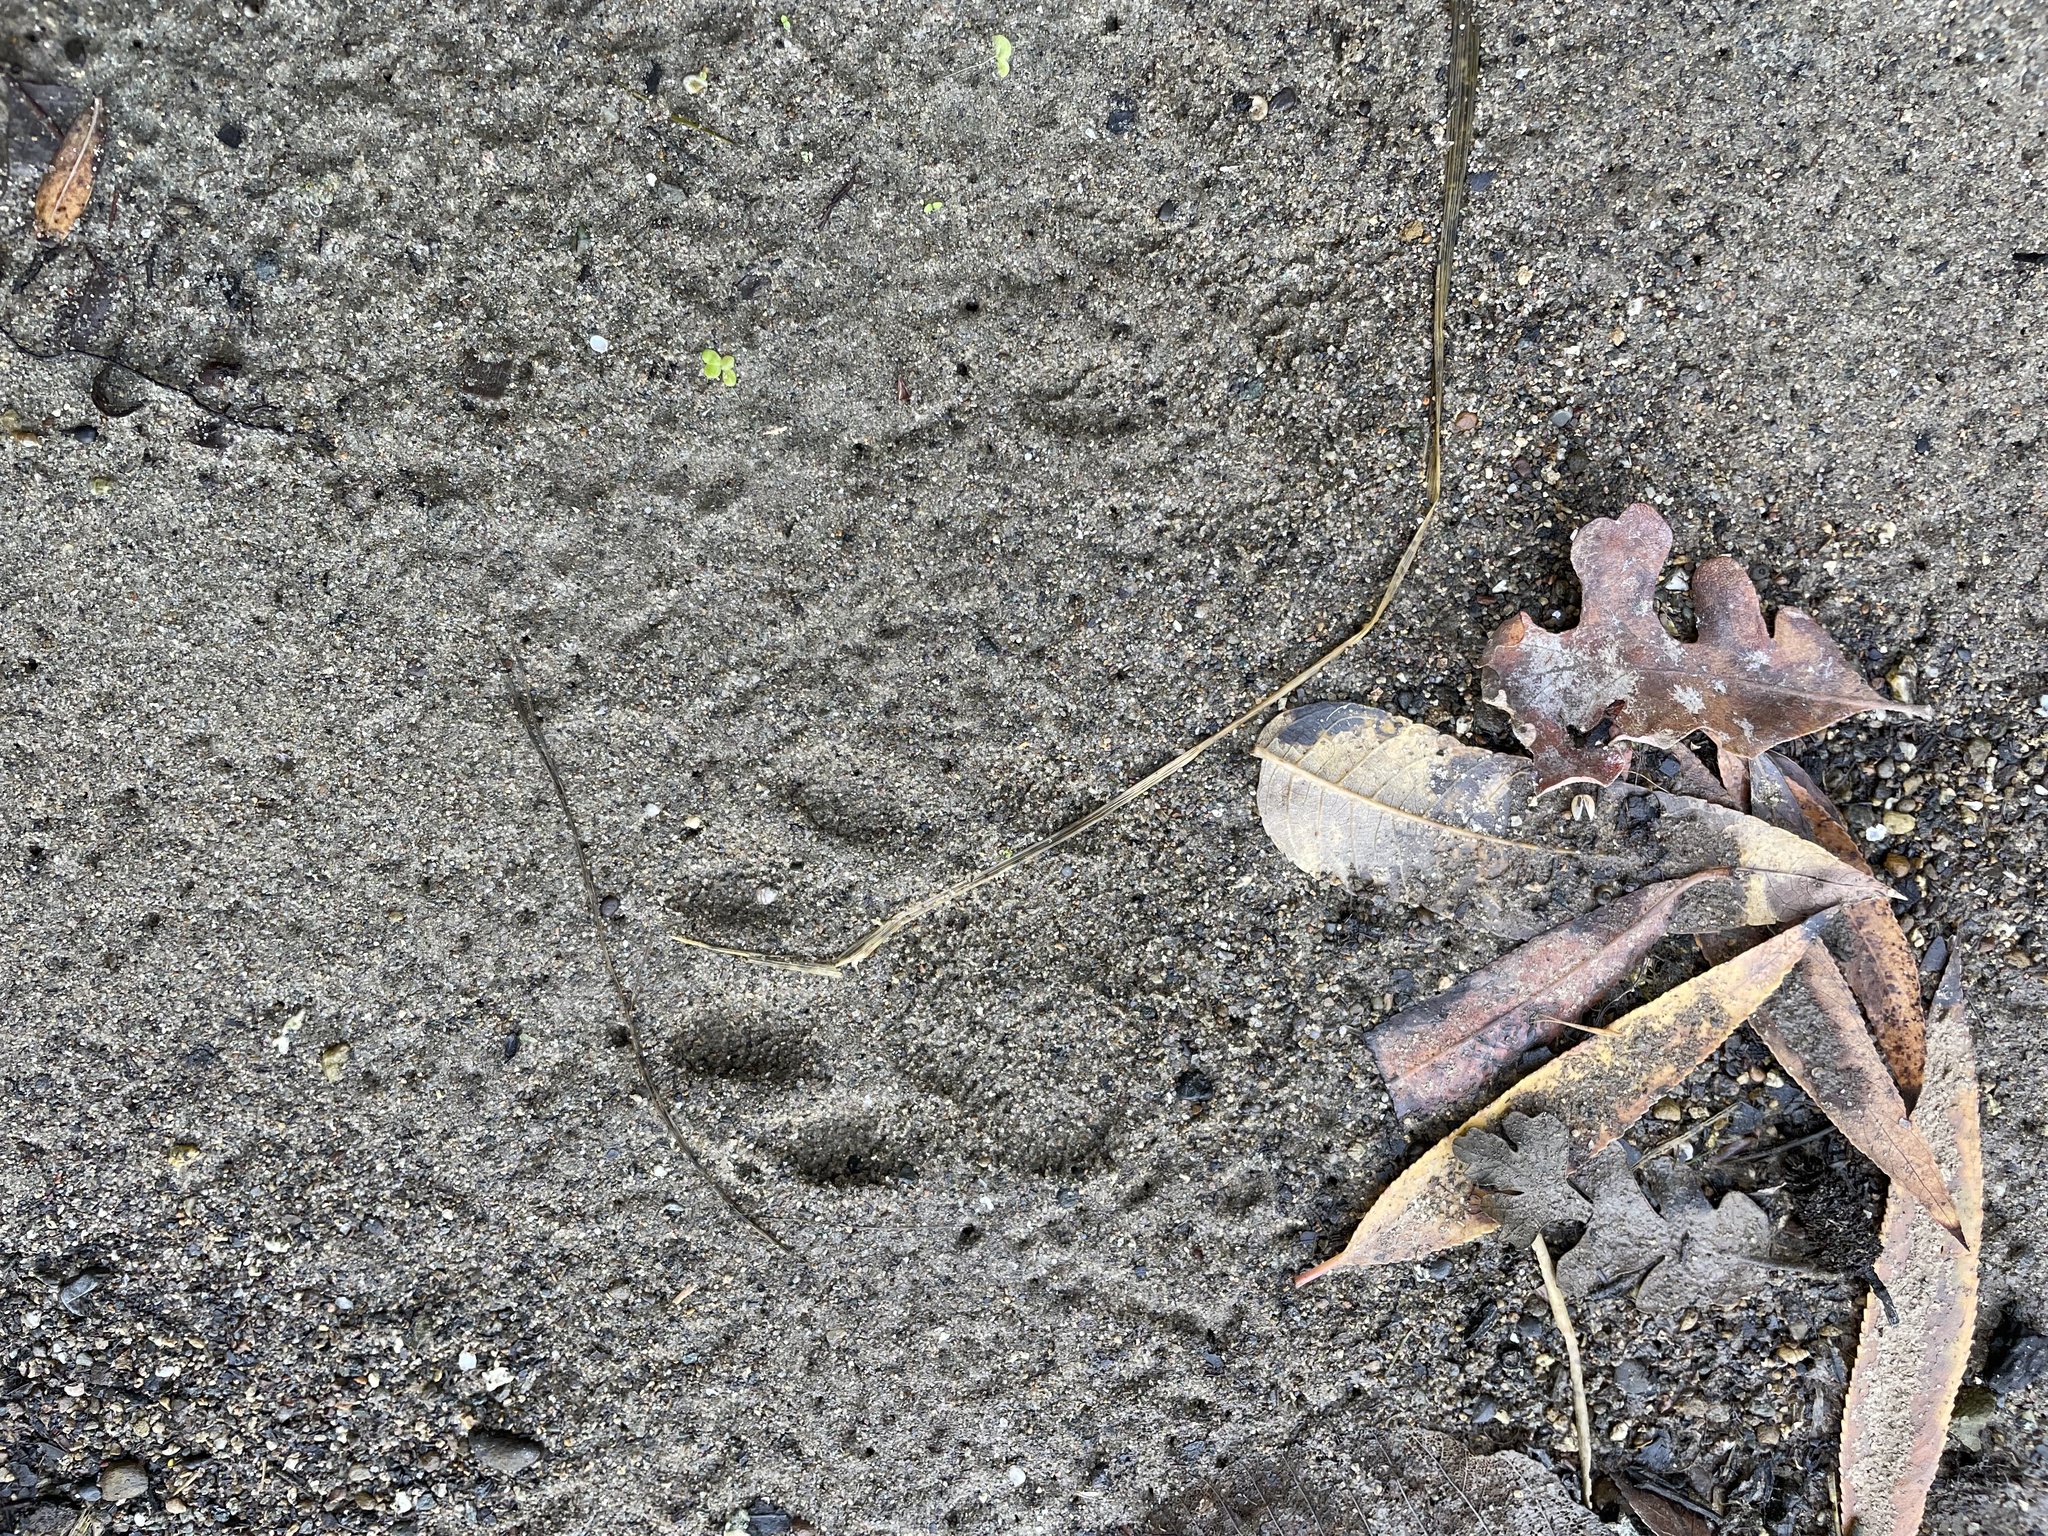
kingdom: Animalia
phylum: Chordata
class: Mammalia
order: Carnivora
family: Procyonidae
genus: Procyon
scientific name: Procyon lotor
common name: Raccoon
